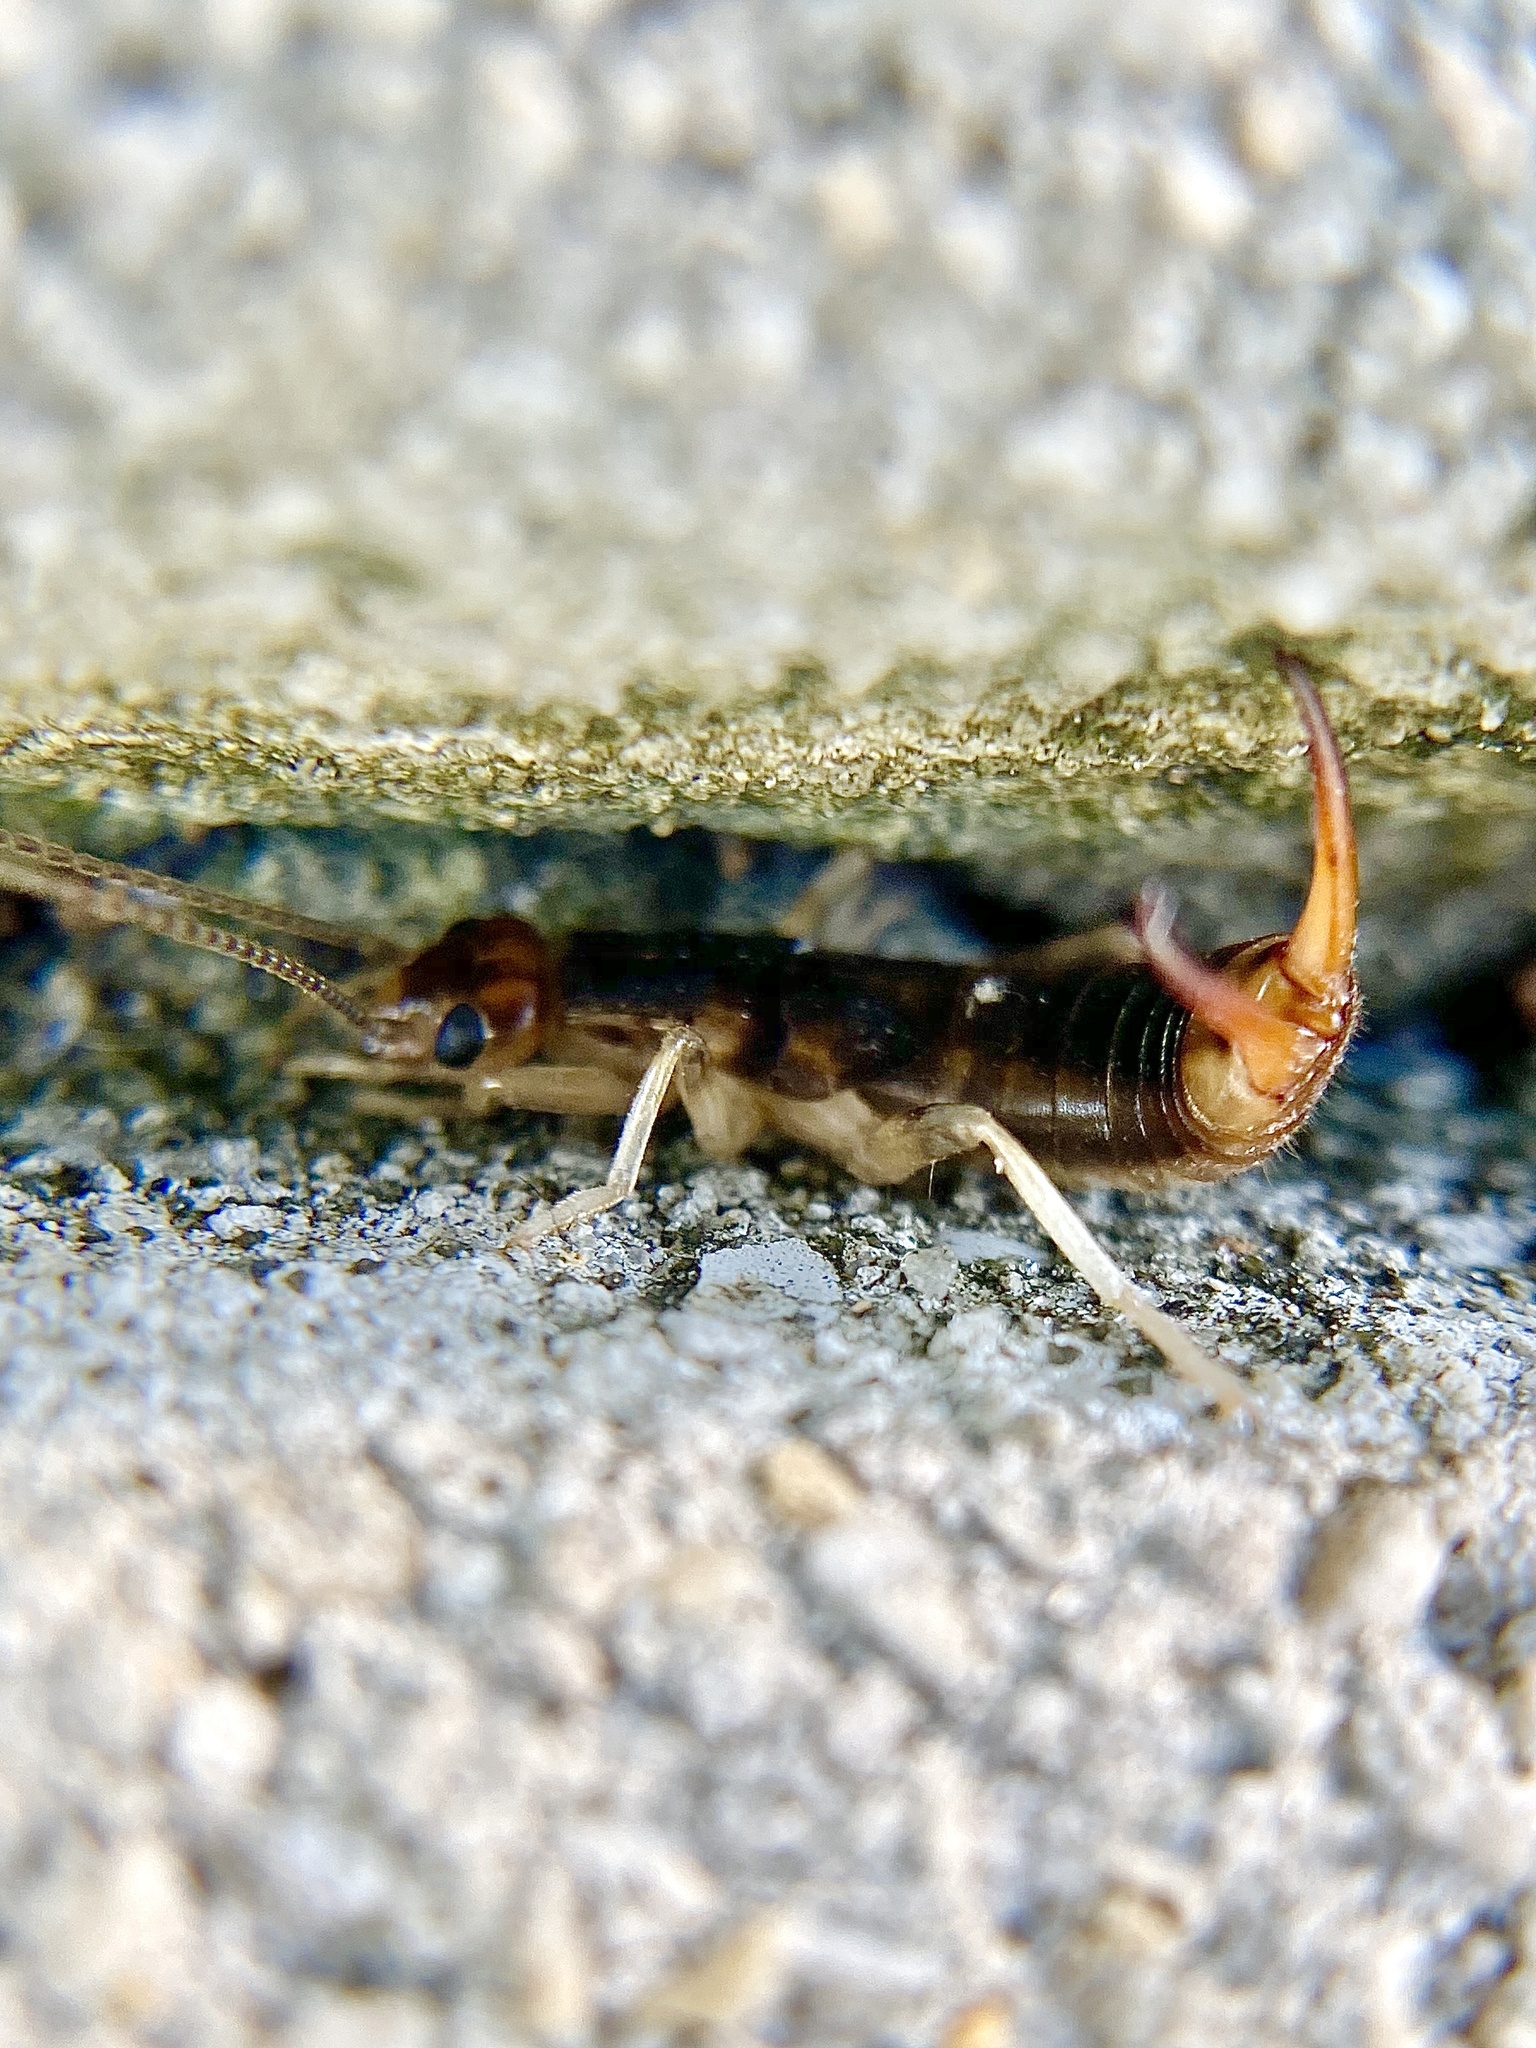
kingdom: Animalia
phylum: Arthropoda
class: Insecta
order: Dermaptera
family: Labiduridae
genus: Labidura
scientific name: Labidura riparia
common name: Striped earwig
